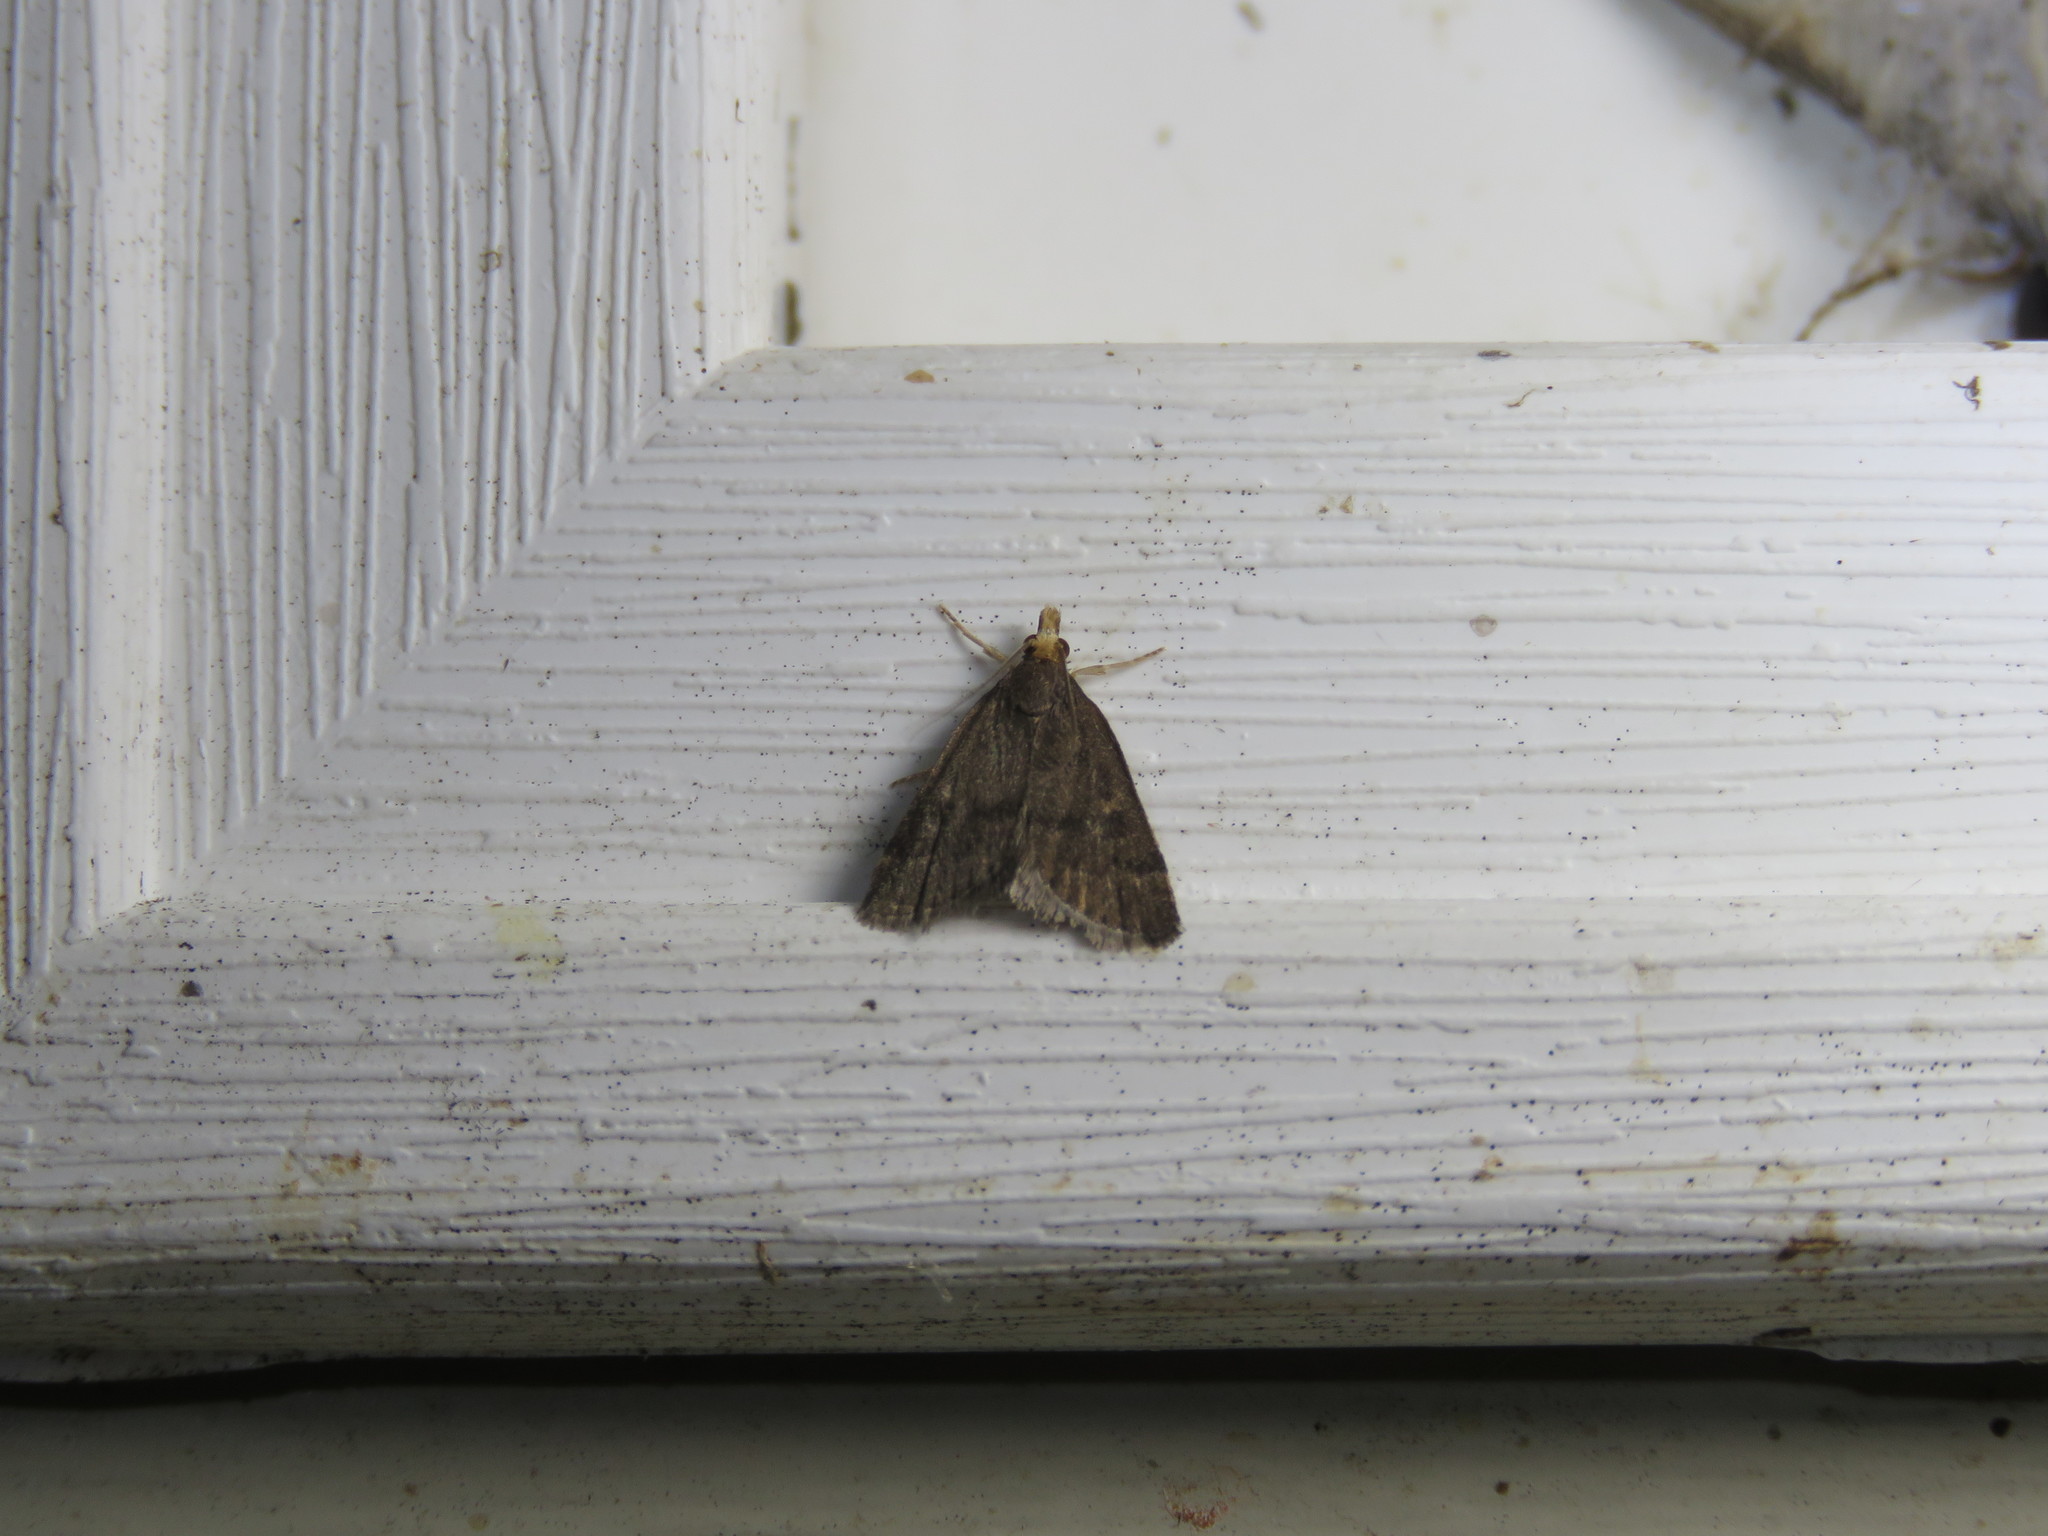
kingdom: Animalia
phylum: Arthropoda
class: Insecta
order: Lepidoptera
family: Crambidae
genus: Pyrausta
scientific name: Pyrausta merrickalis
